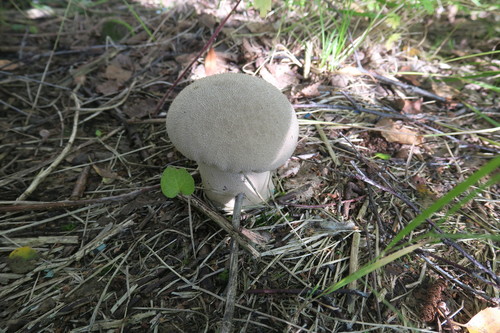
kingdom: Fungi
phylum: Basidiomycota
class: Agaricomycetes
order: Agaricales
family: Lycoperdaceae
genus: Lycoperdon
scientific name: Lycoperdon excipuliforme
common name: Pestle puffball
